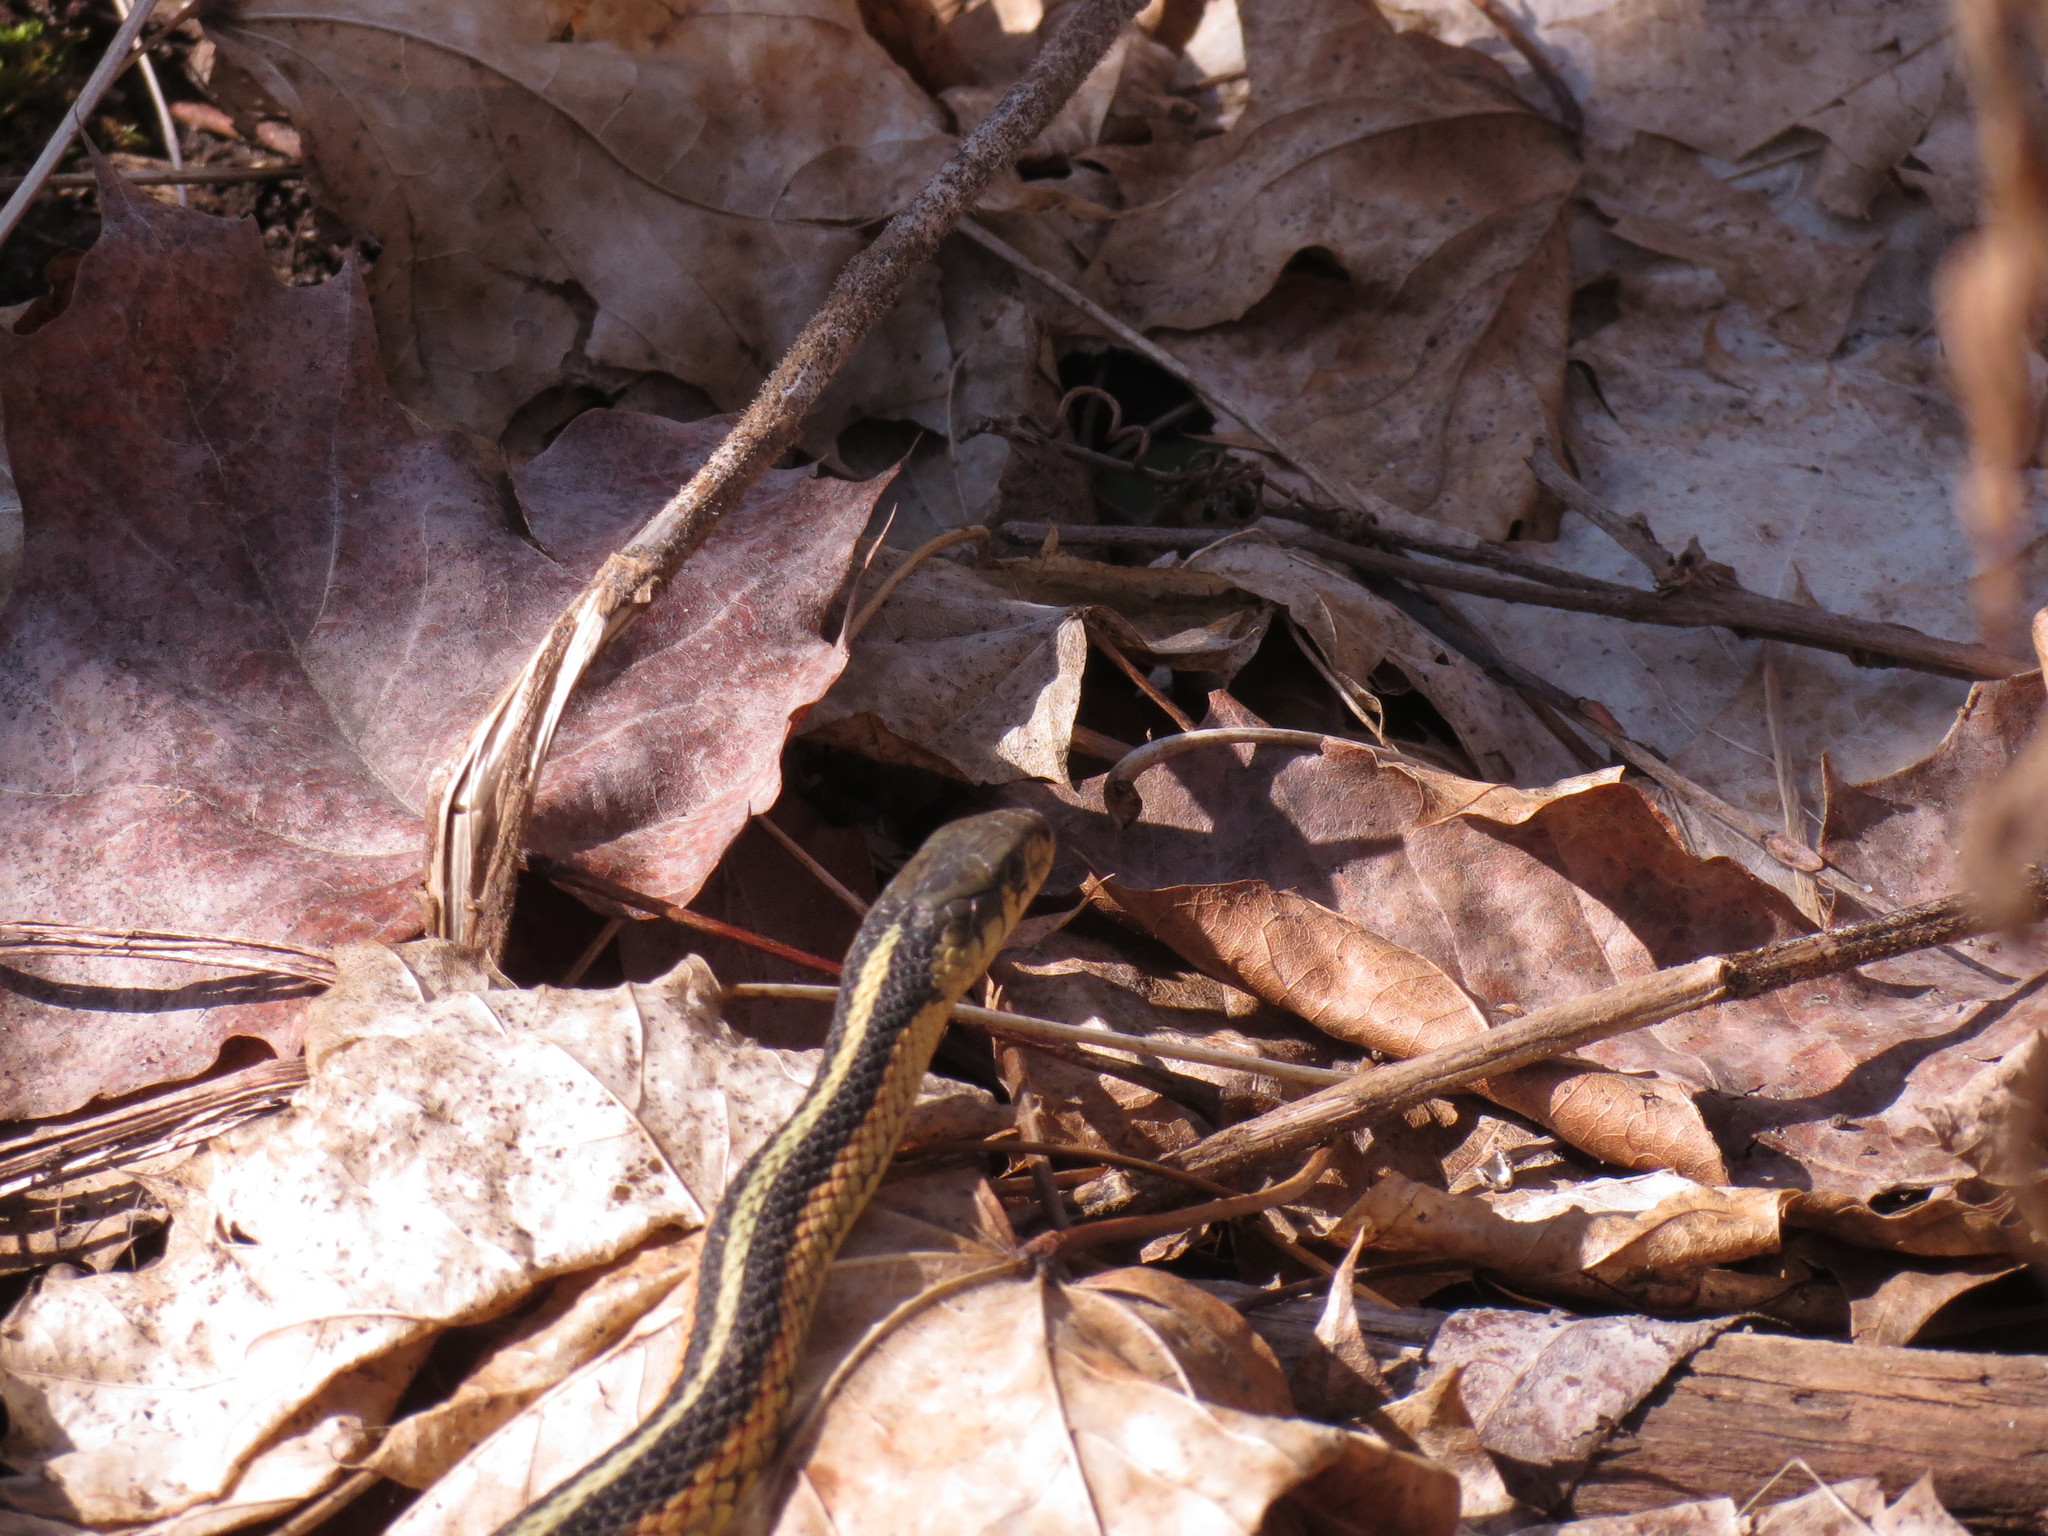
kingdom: Animalia
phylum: Chordata
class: Squamata
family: Colubridae
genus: Thamnophis
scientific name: Thamnophis sirtalis
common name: Common garter snake
